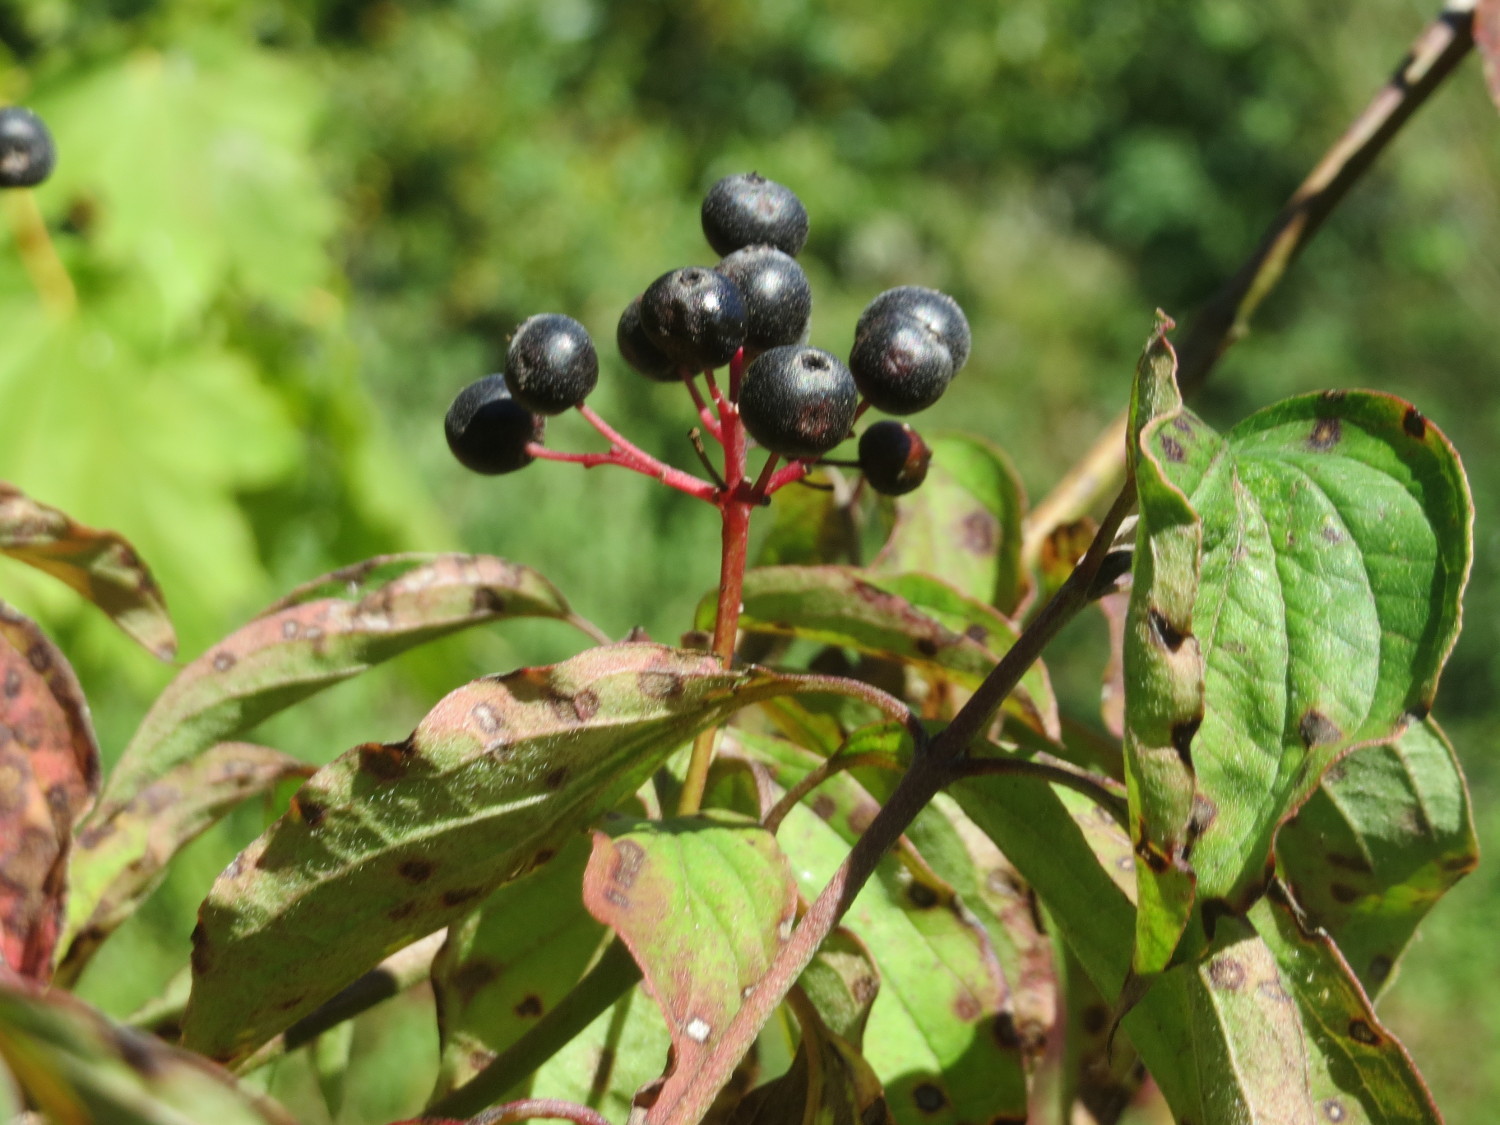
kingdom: Plantae
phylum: Tracheophyta
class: Magnoliopsida
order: Cornales
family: Cornaceae
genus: Cornus
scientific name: Cornus sanguinea
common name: Dogwood
